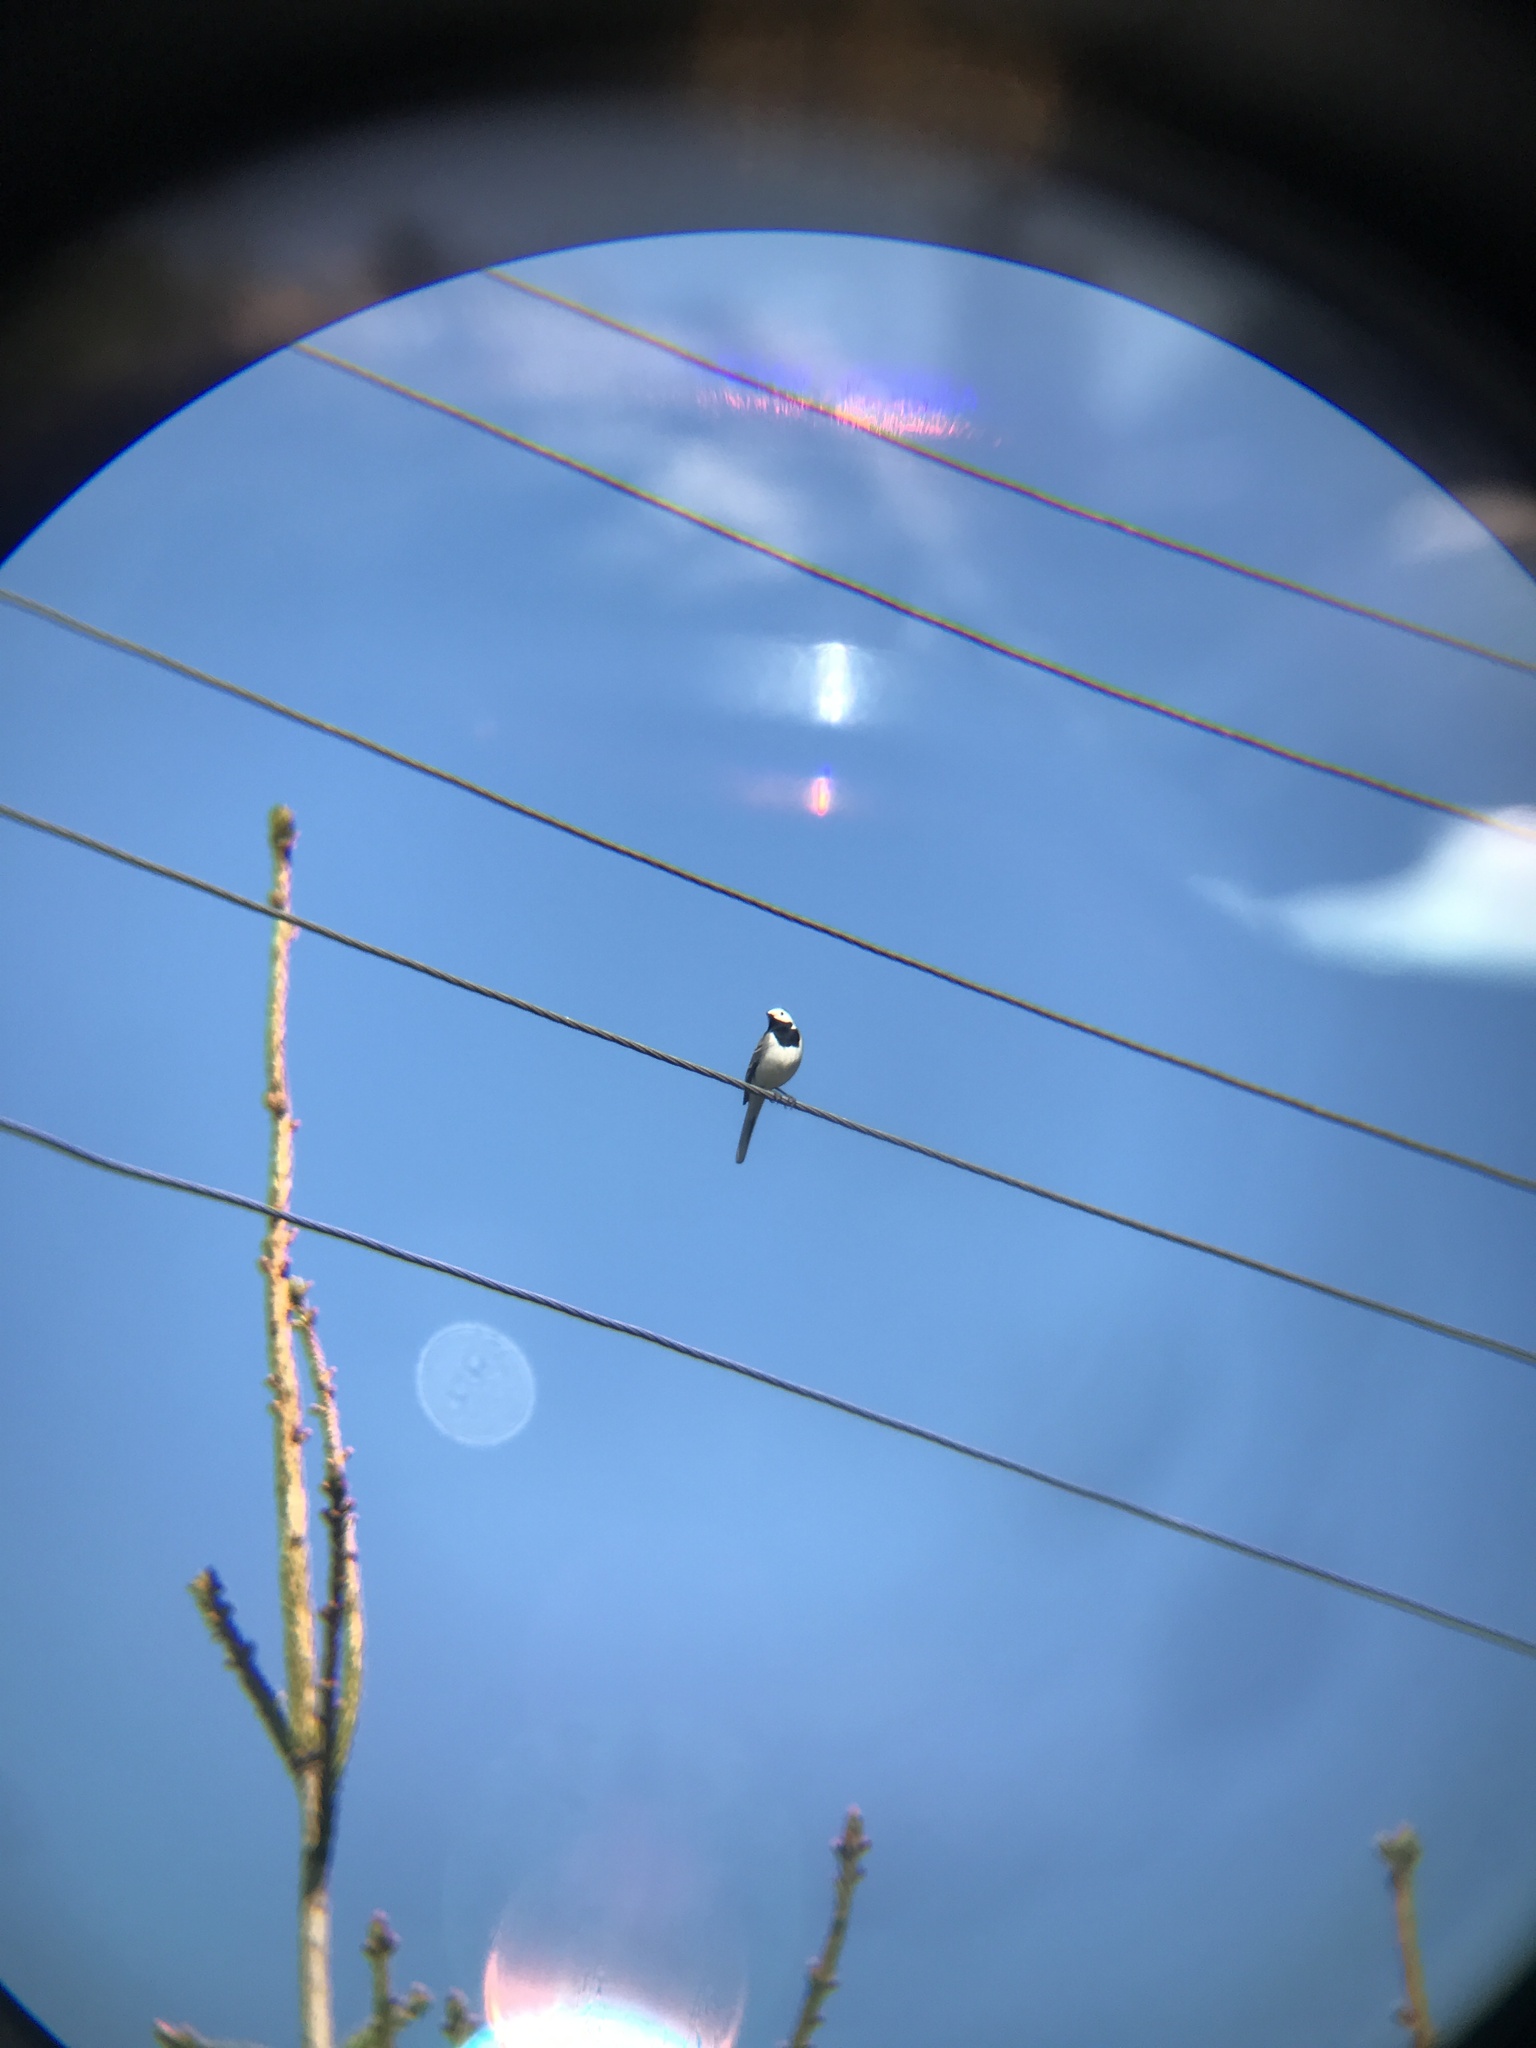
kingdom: Animalia
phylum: Chordata
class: Aves
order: Passeriformes
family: Motacillidae
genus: Motacilla
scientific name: Motacilla alba
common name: White wagtail
